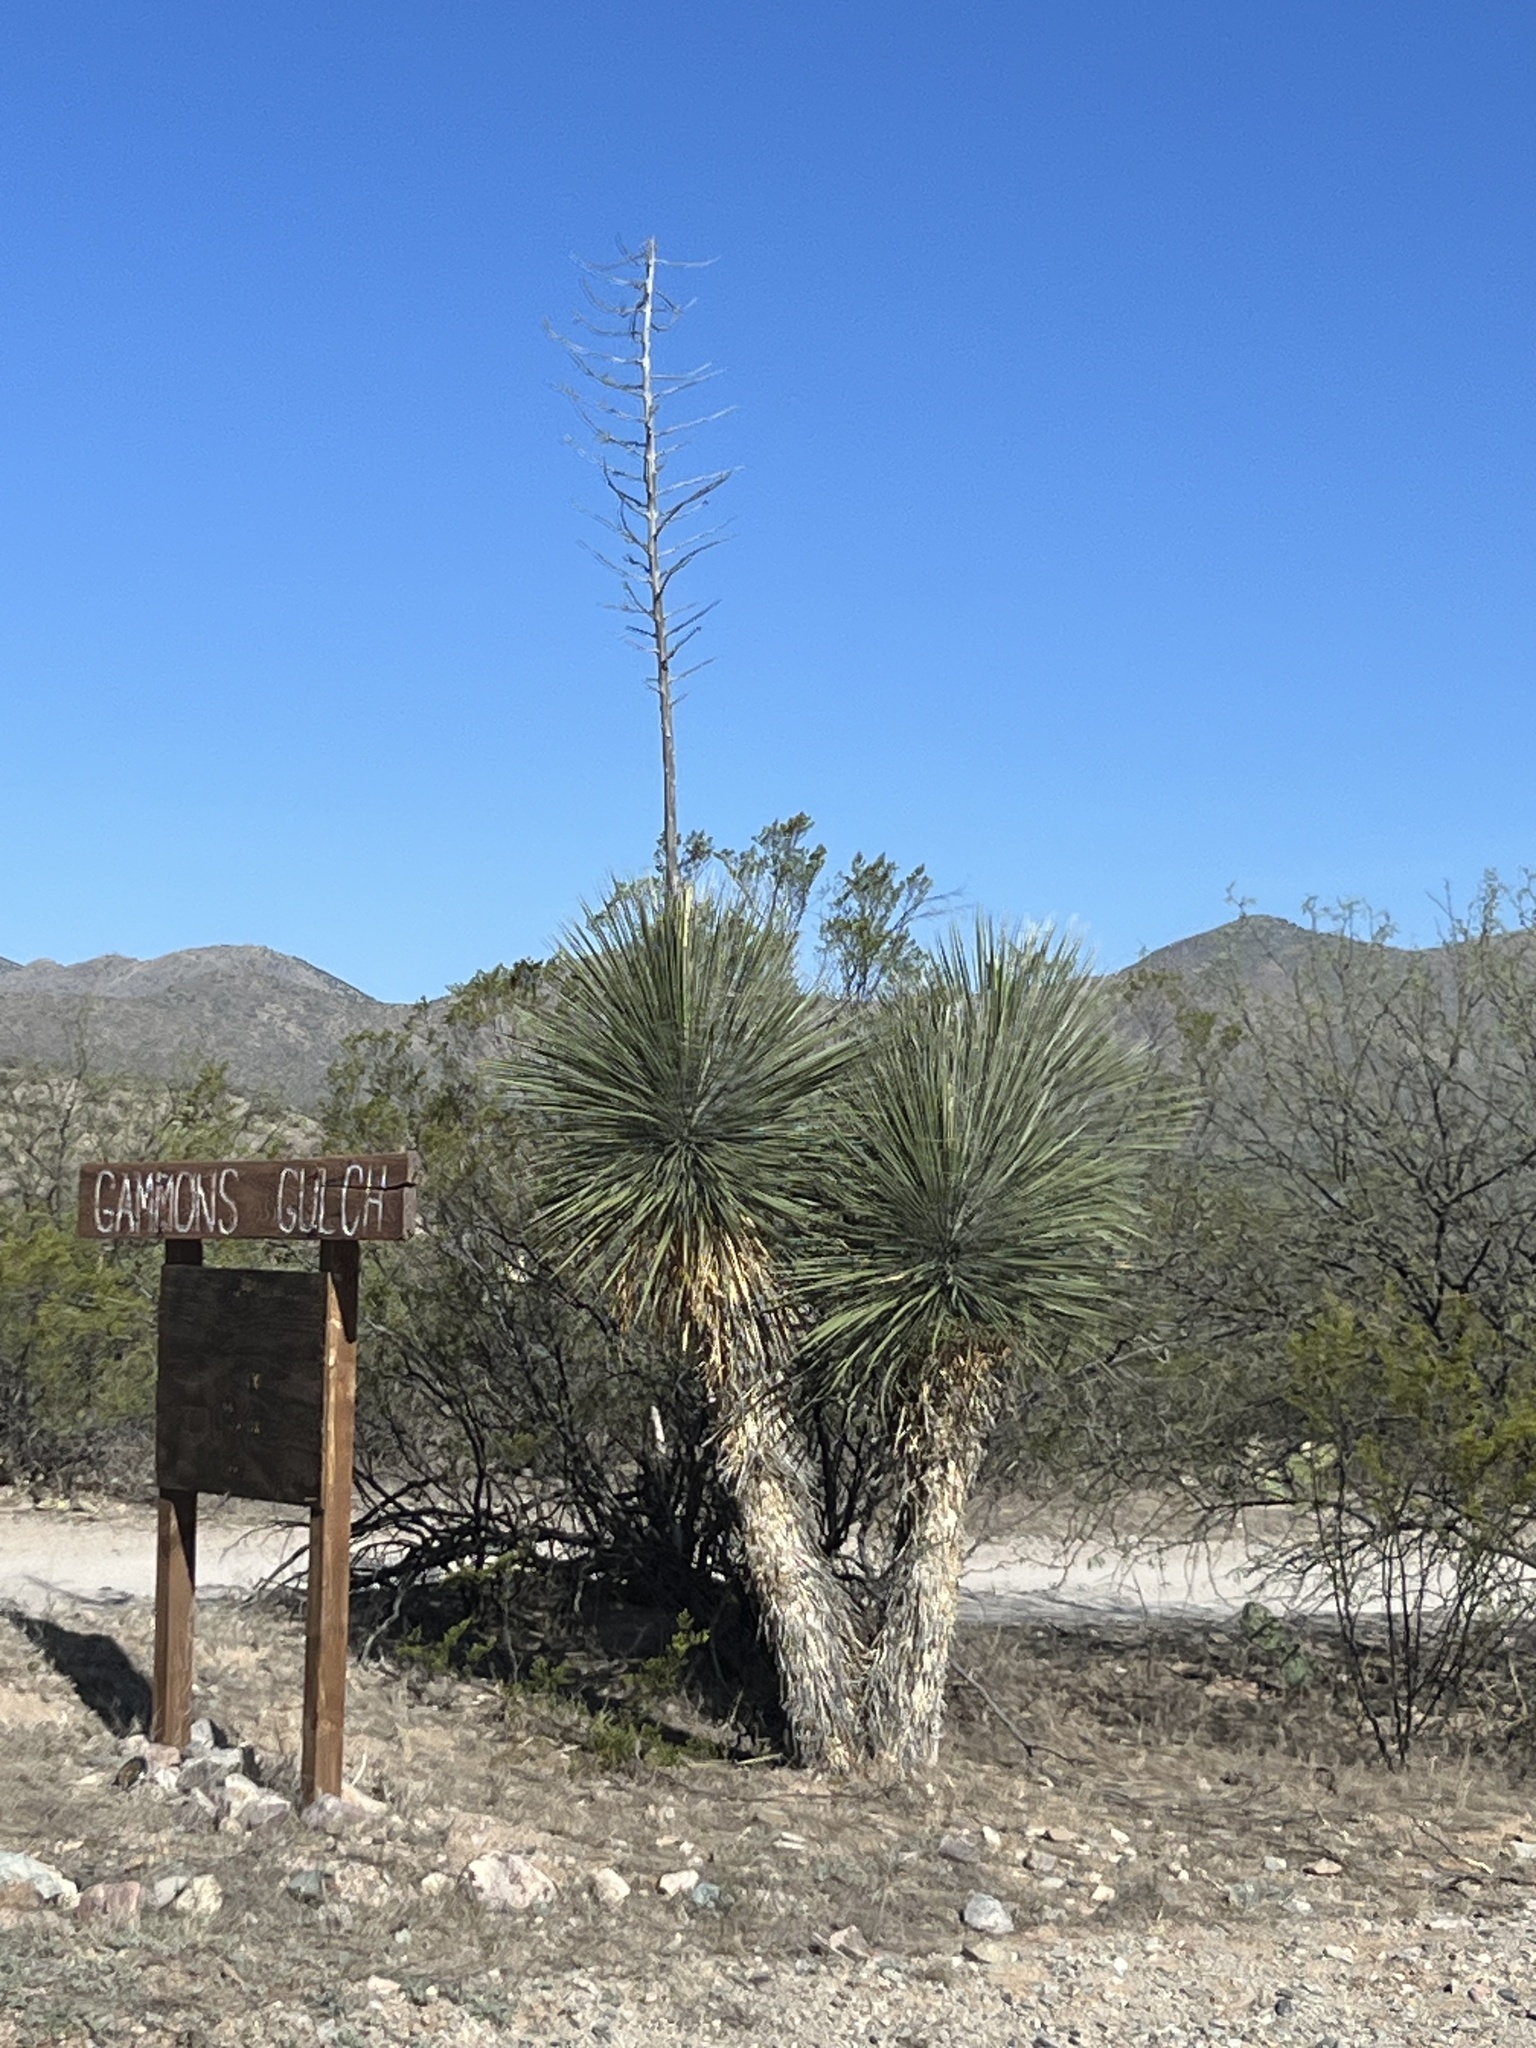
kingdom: Plantae
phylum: Tracheophyta
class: Liliopsida
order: Asparagales
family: Asparagaceae
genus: Yucca
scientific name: Yucca elata
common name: Palmella
